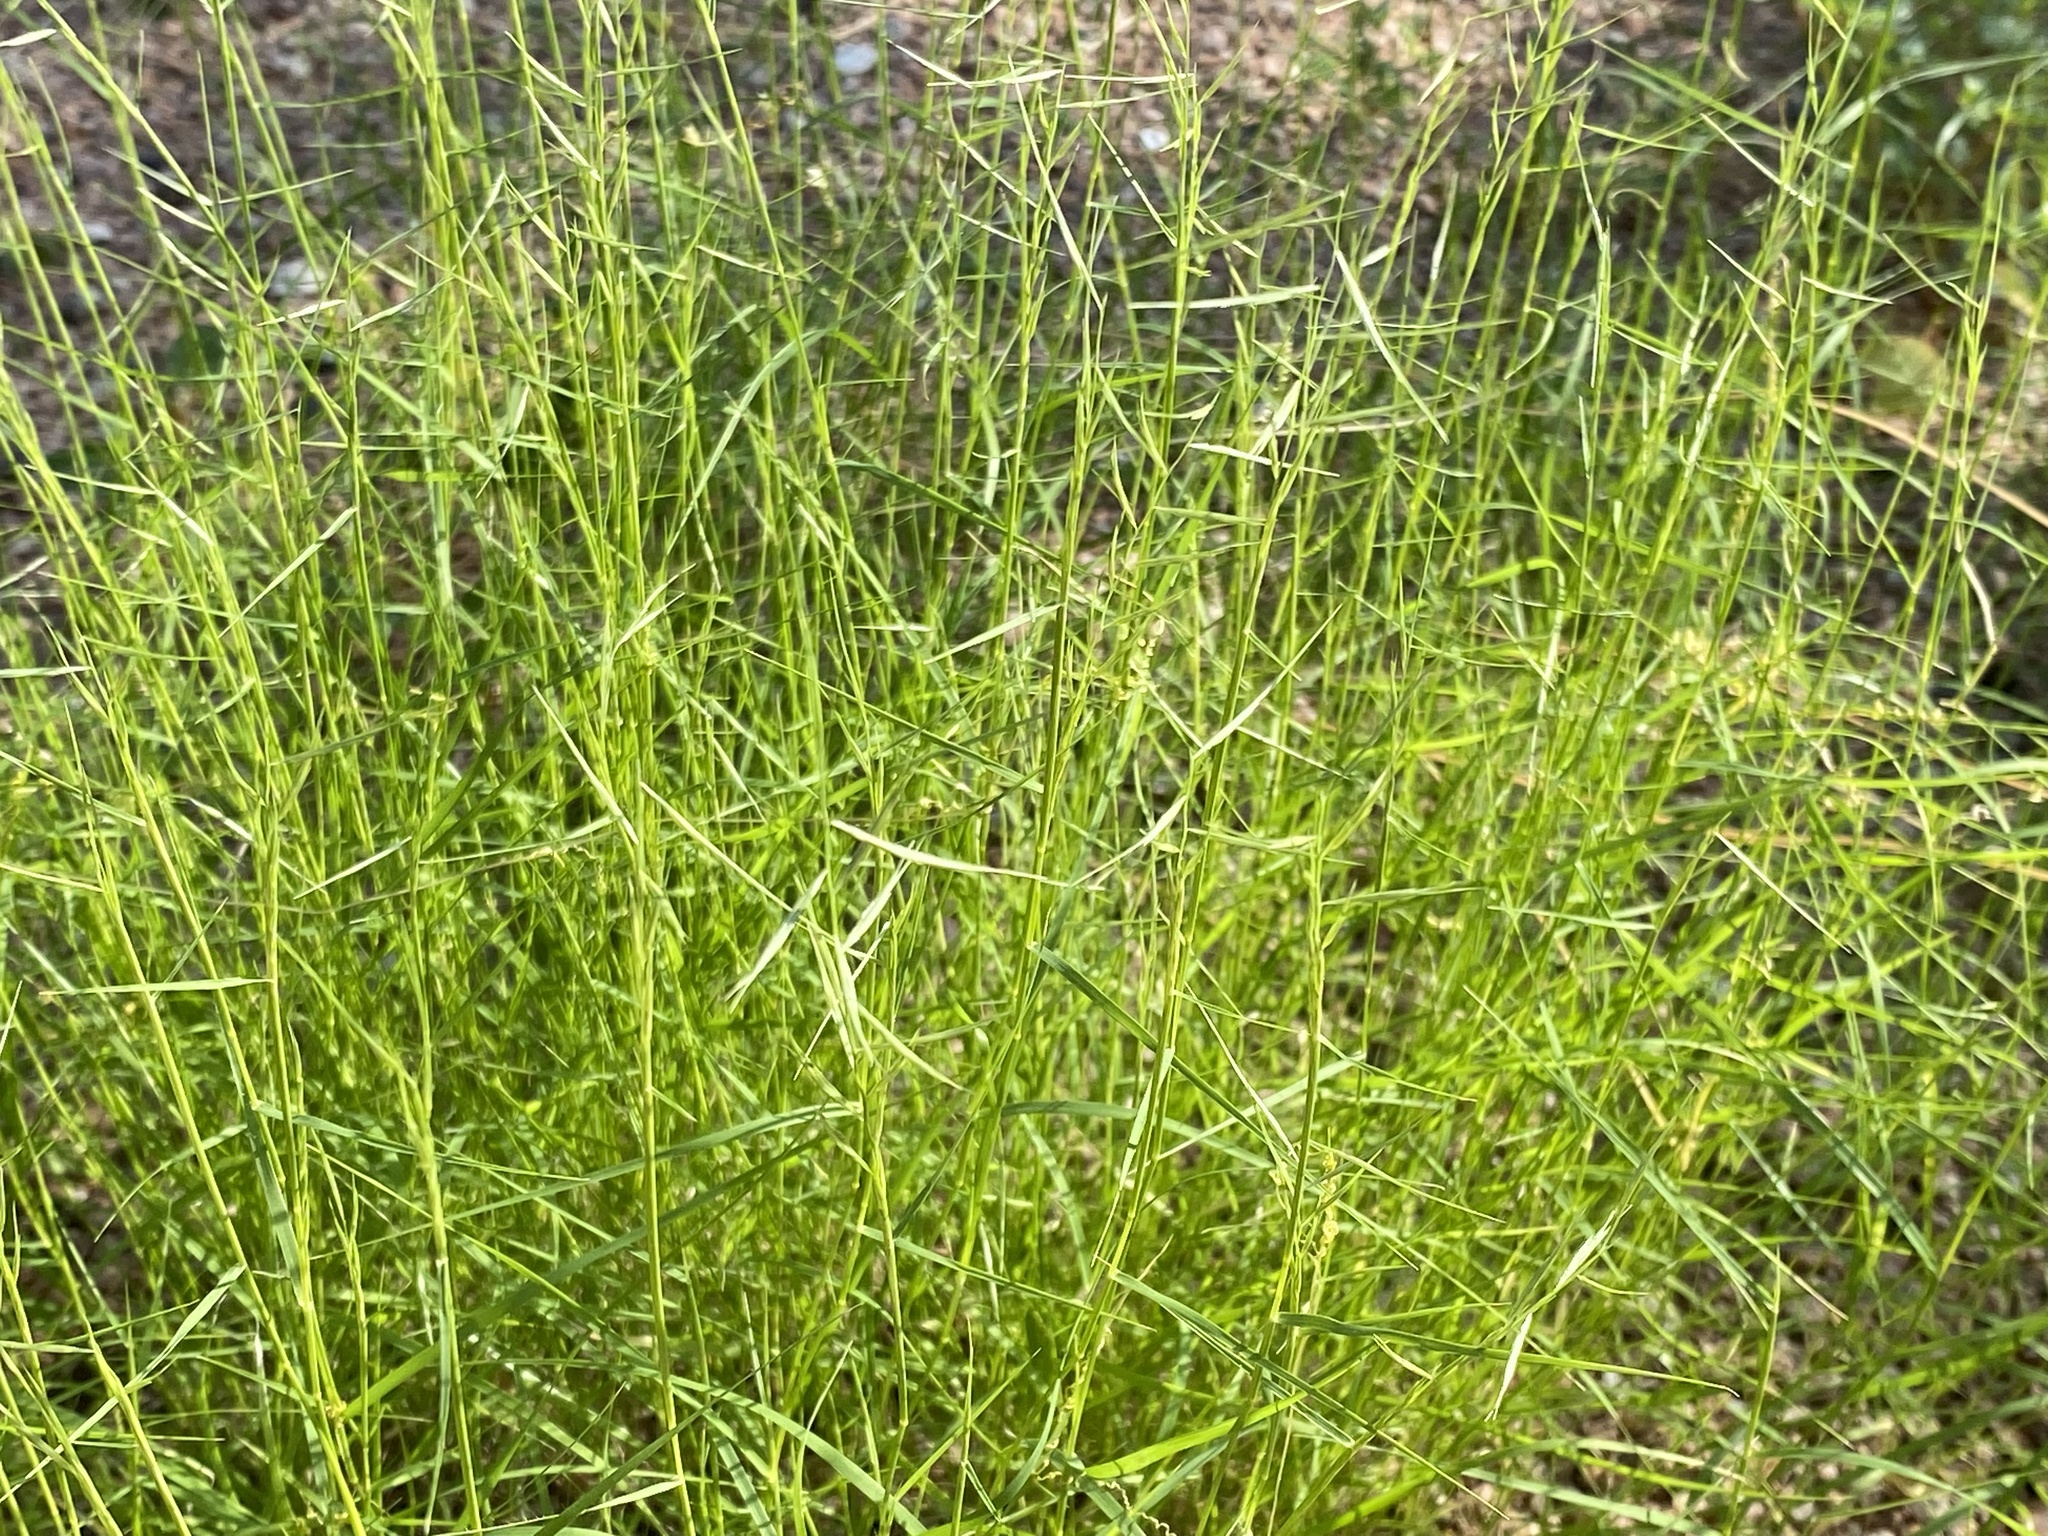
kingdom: Plantae
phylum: Tracheophyta
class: Liliopsida
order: Poales
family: Poaceae
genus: Bouteloua
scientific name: Bouteloua aristidoides
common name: Needle grama
